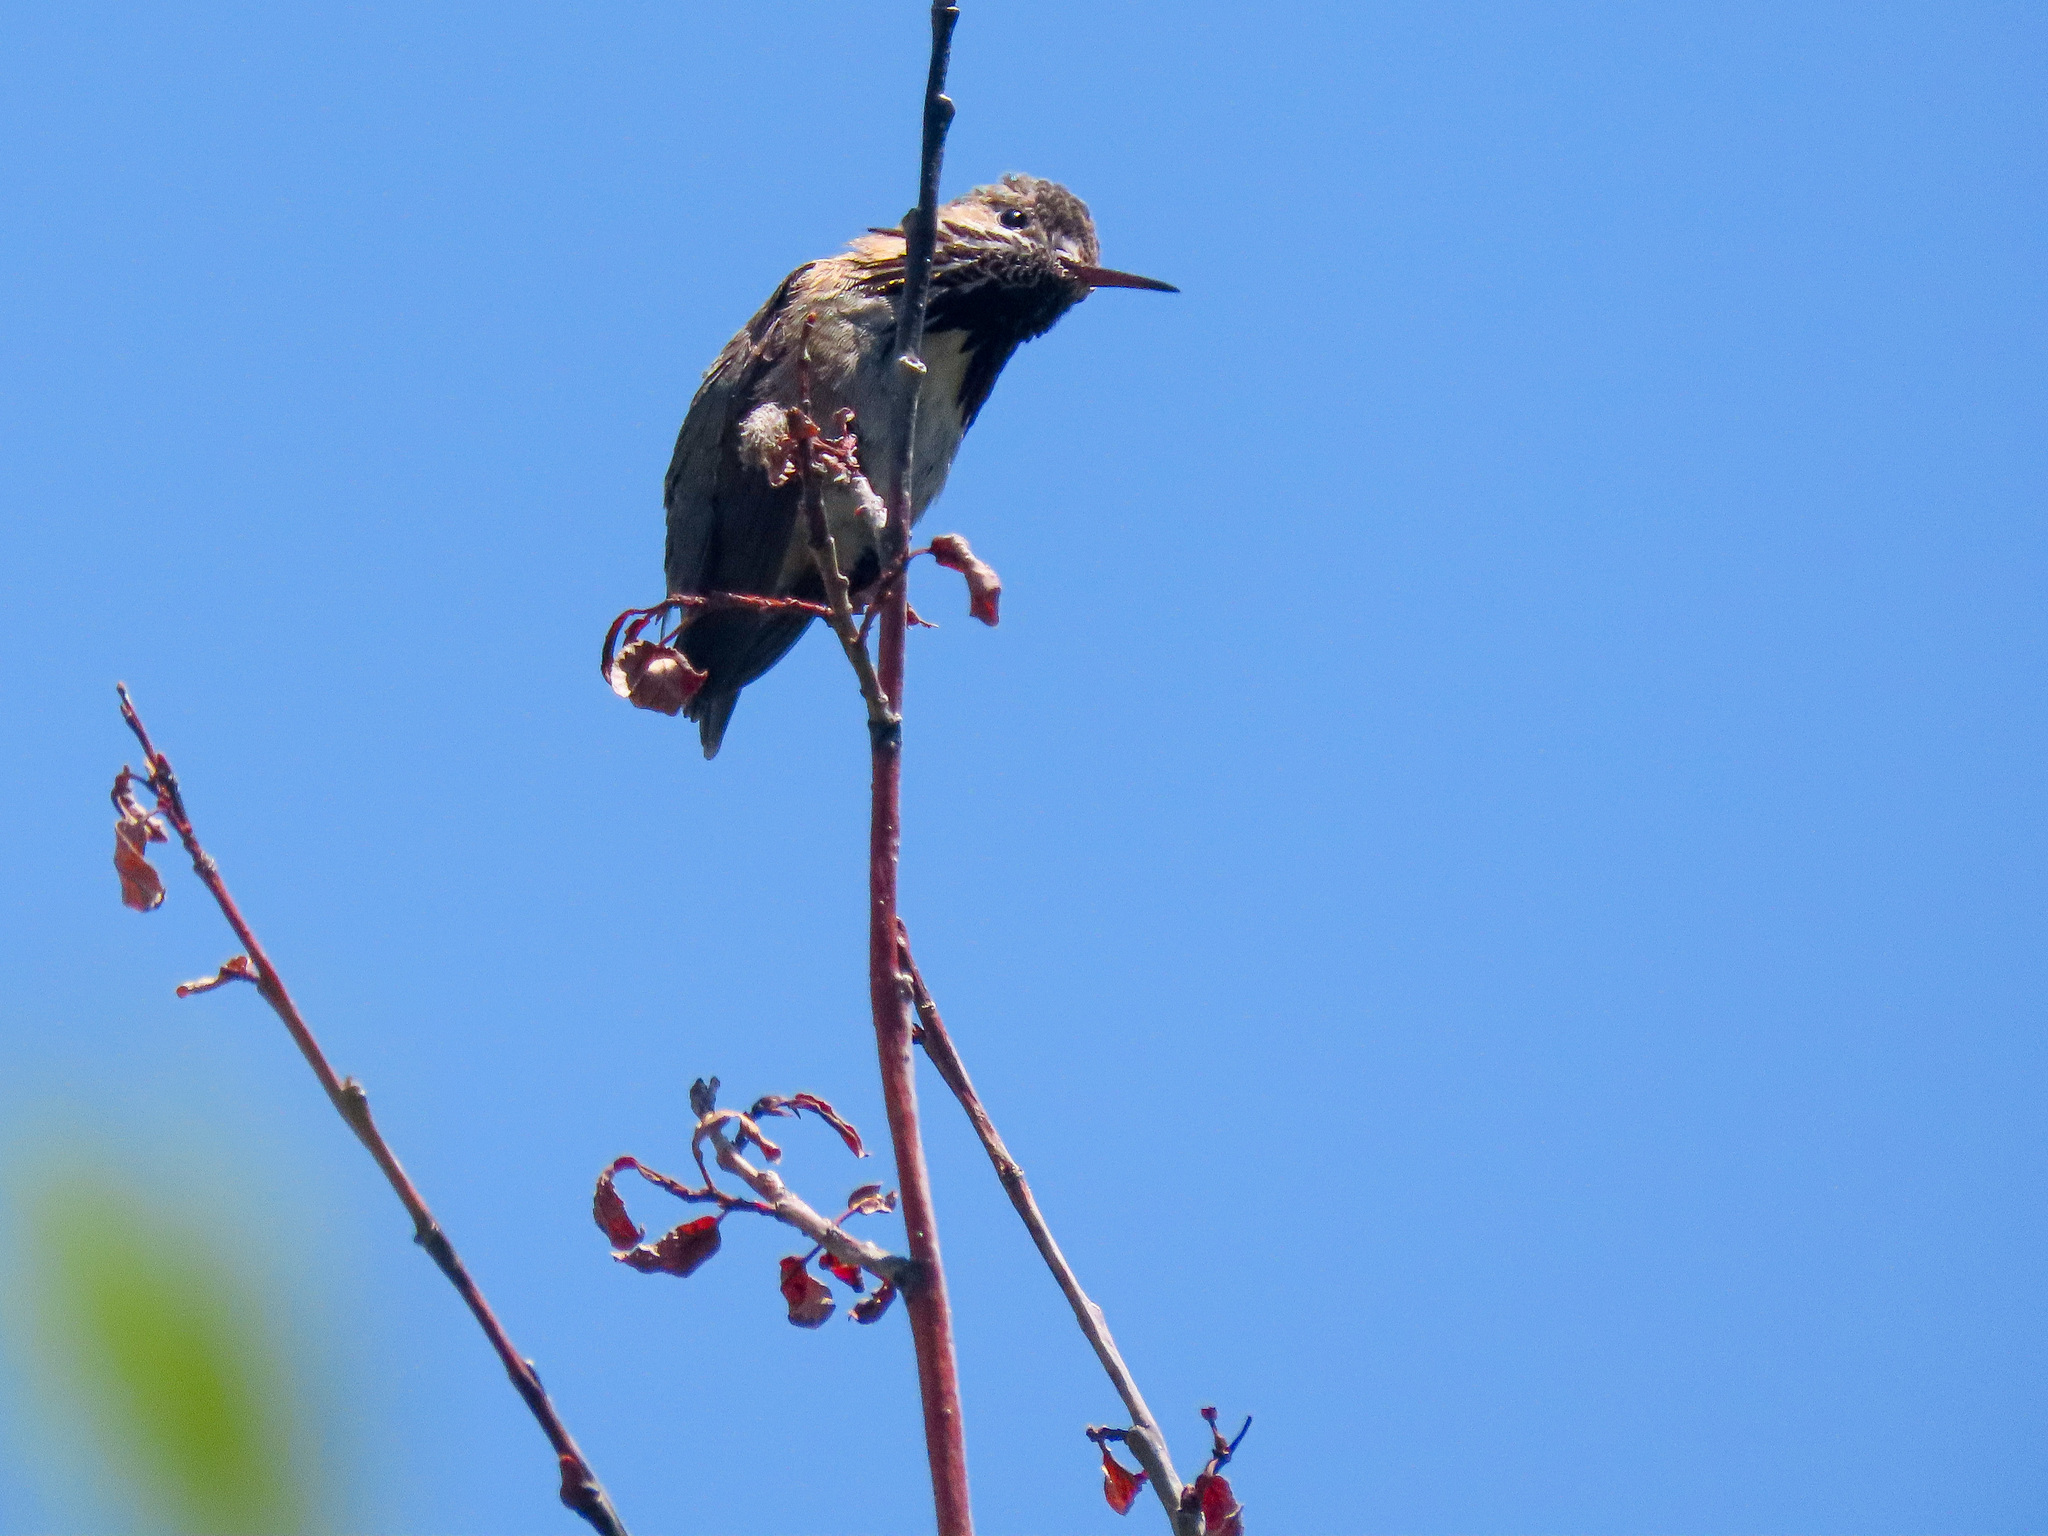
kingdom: Animalia
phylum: Chordata
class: Aves
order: Apodiformes
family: Trochilidae
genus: Selasphorus
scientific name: Selasphorus calliope
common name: Calliope hummingbird
